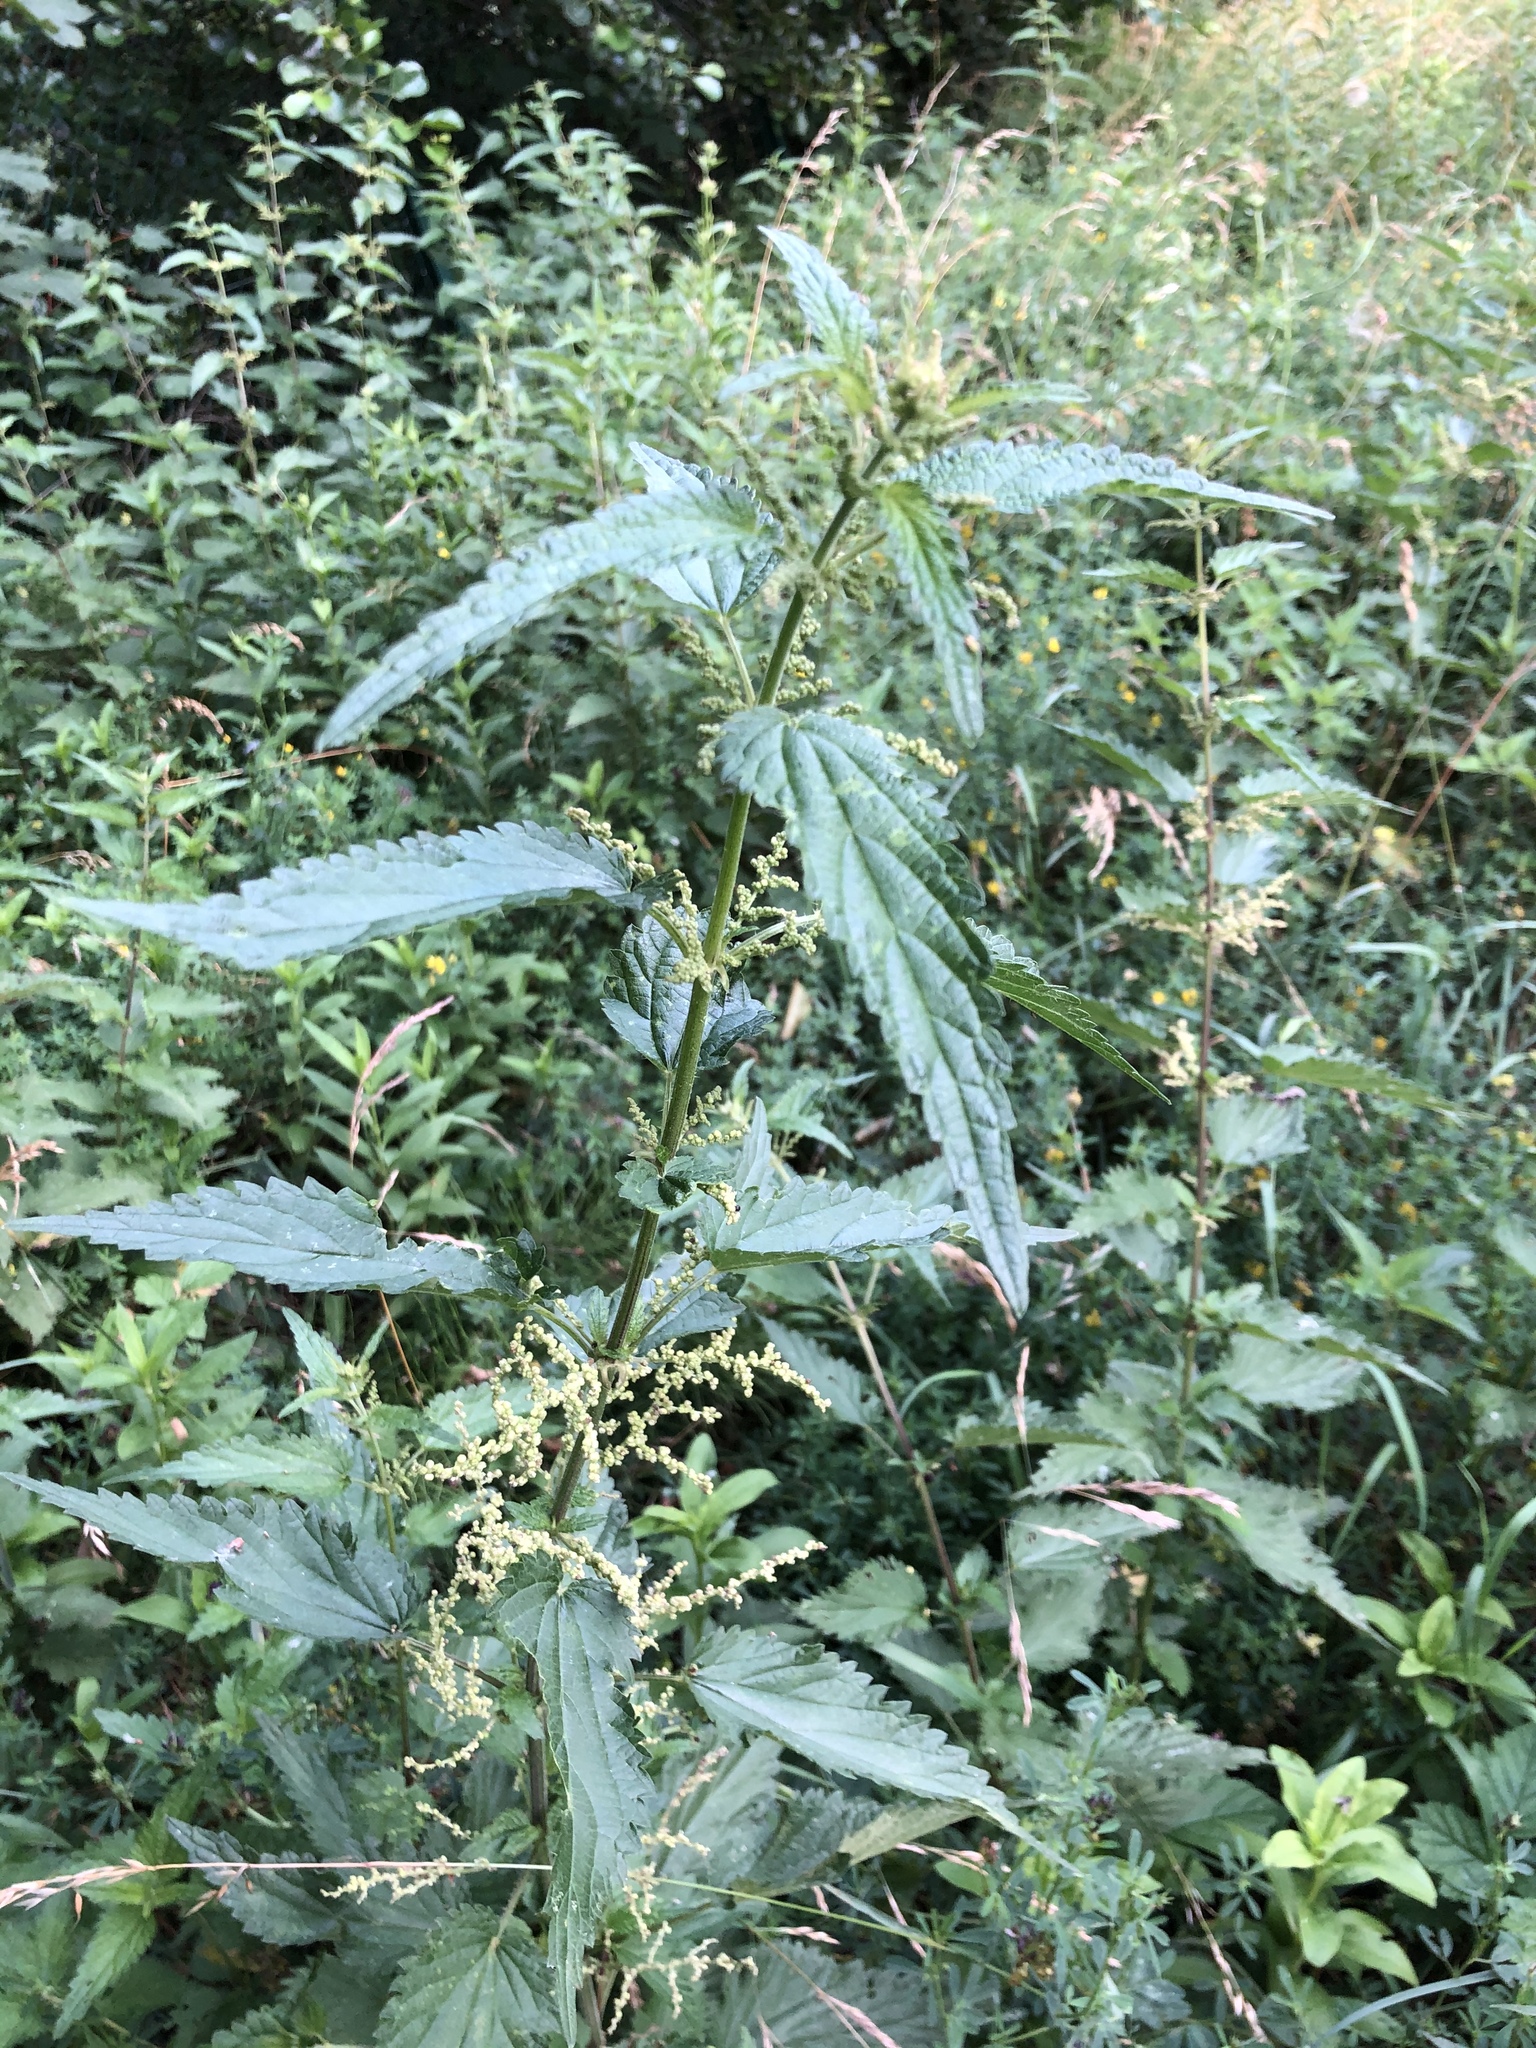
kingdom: Plantae
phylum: Tracheophyta
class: Magnoliopsida
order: Rosales
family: Urticaceae
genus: Urtica
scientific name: Urtica dioica
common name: Common nettle
